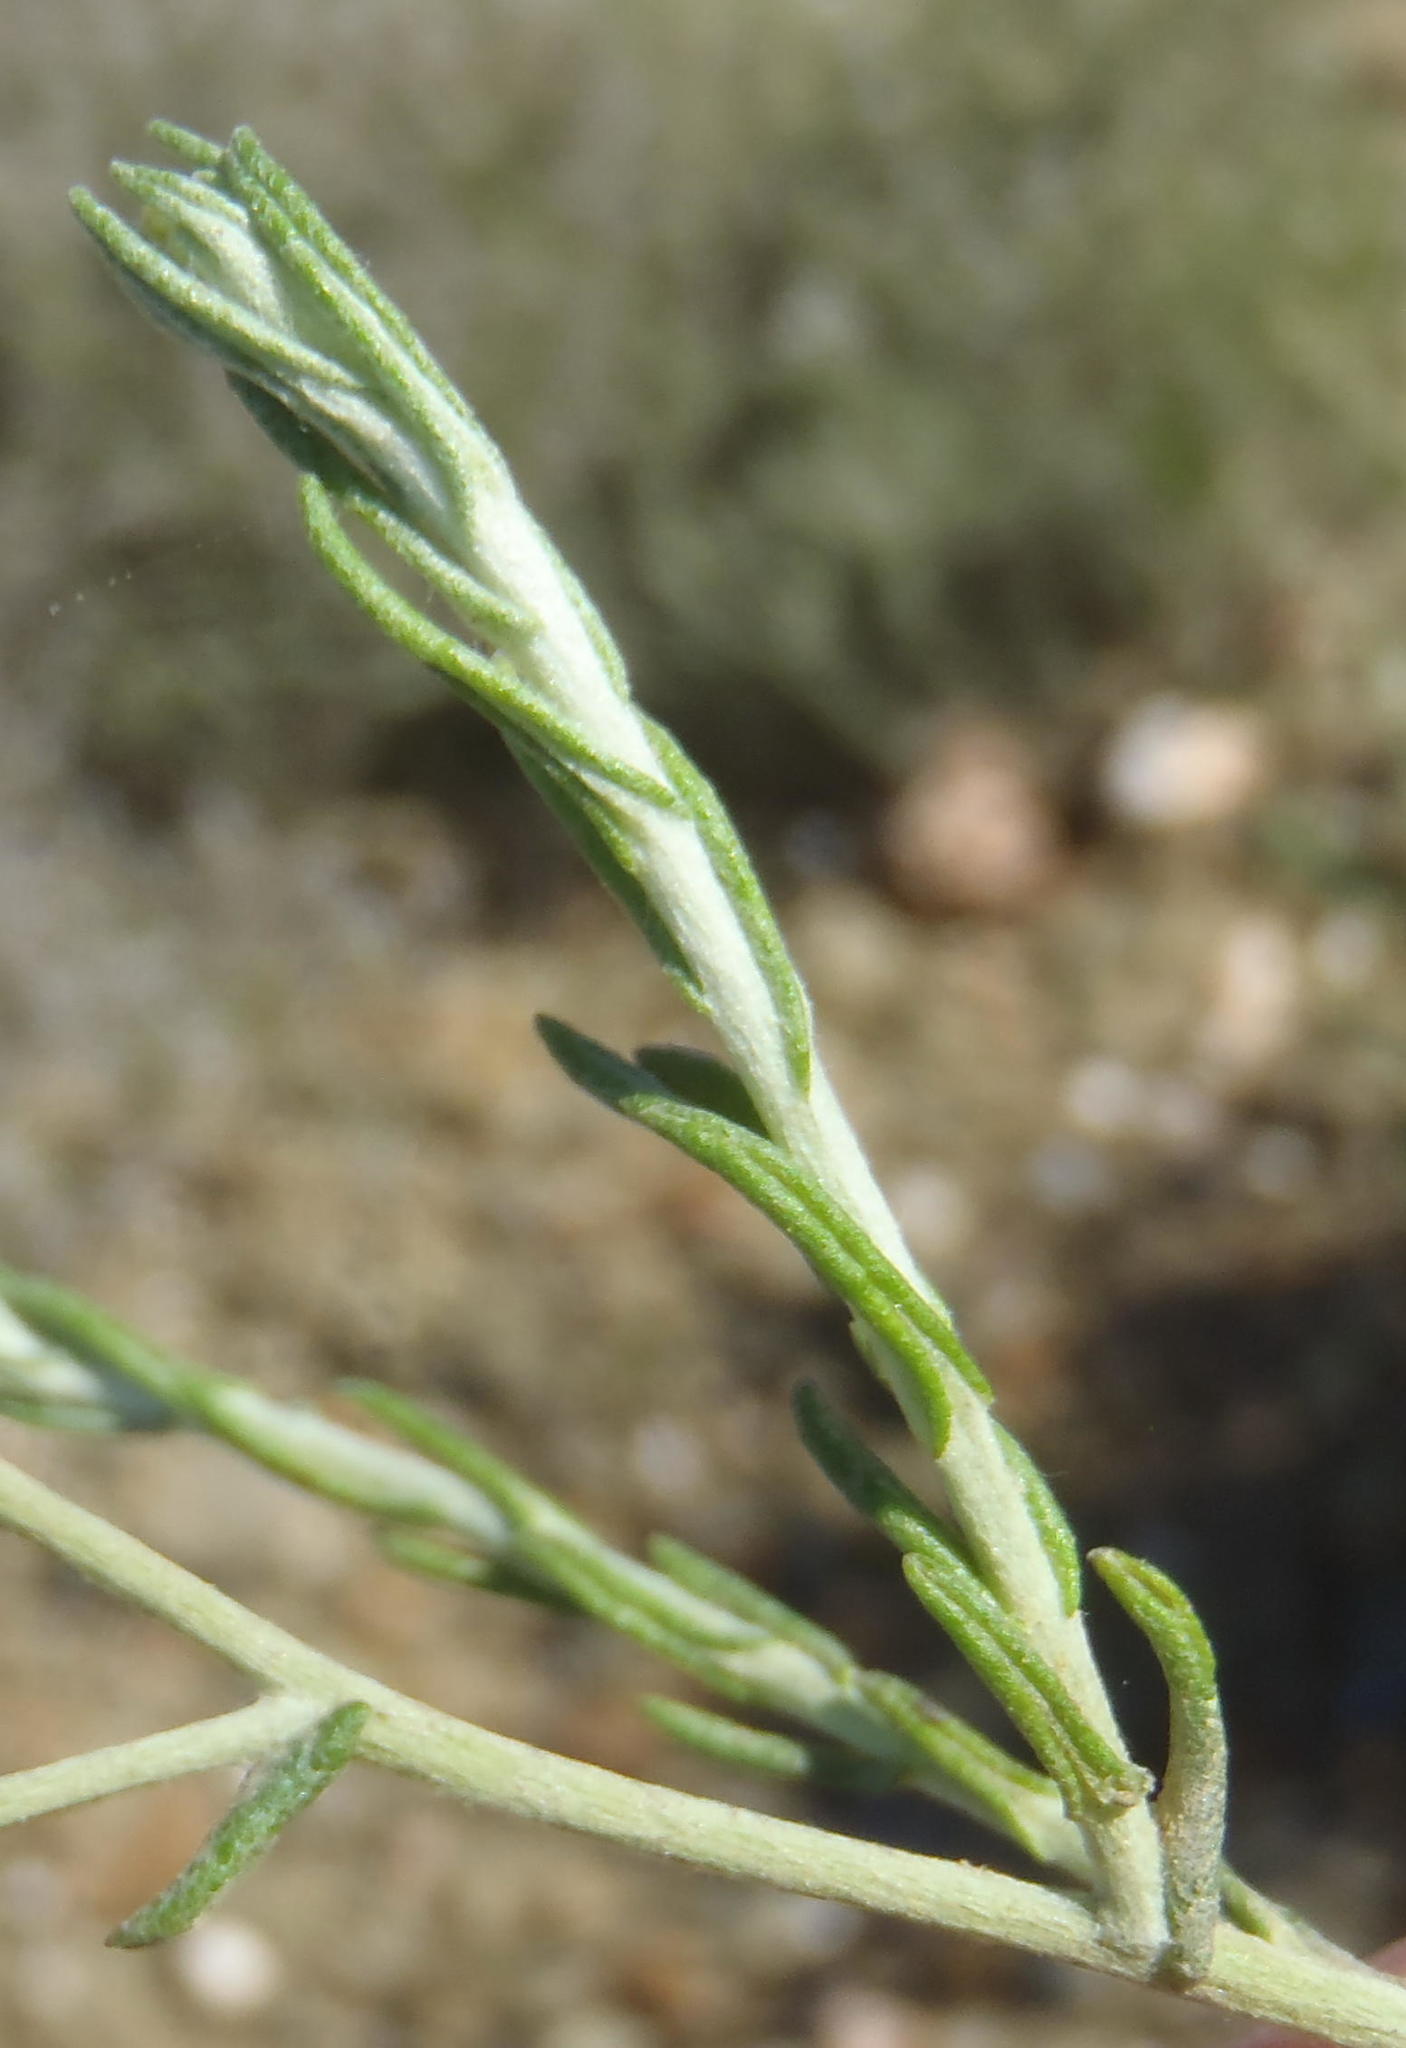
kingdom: Plantae
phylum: Tracheophyta
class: Magnoliopsida
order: Asterales
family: Asteraceae
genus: Helichrysum
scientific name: Helichrysum rosum
